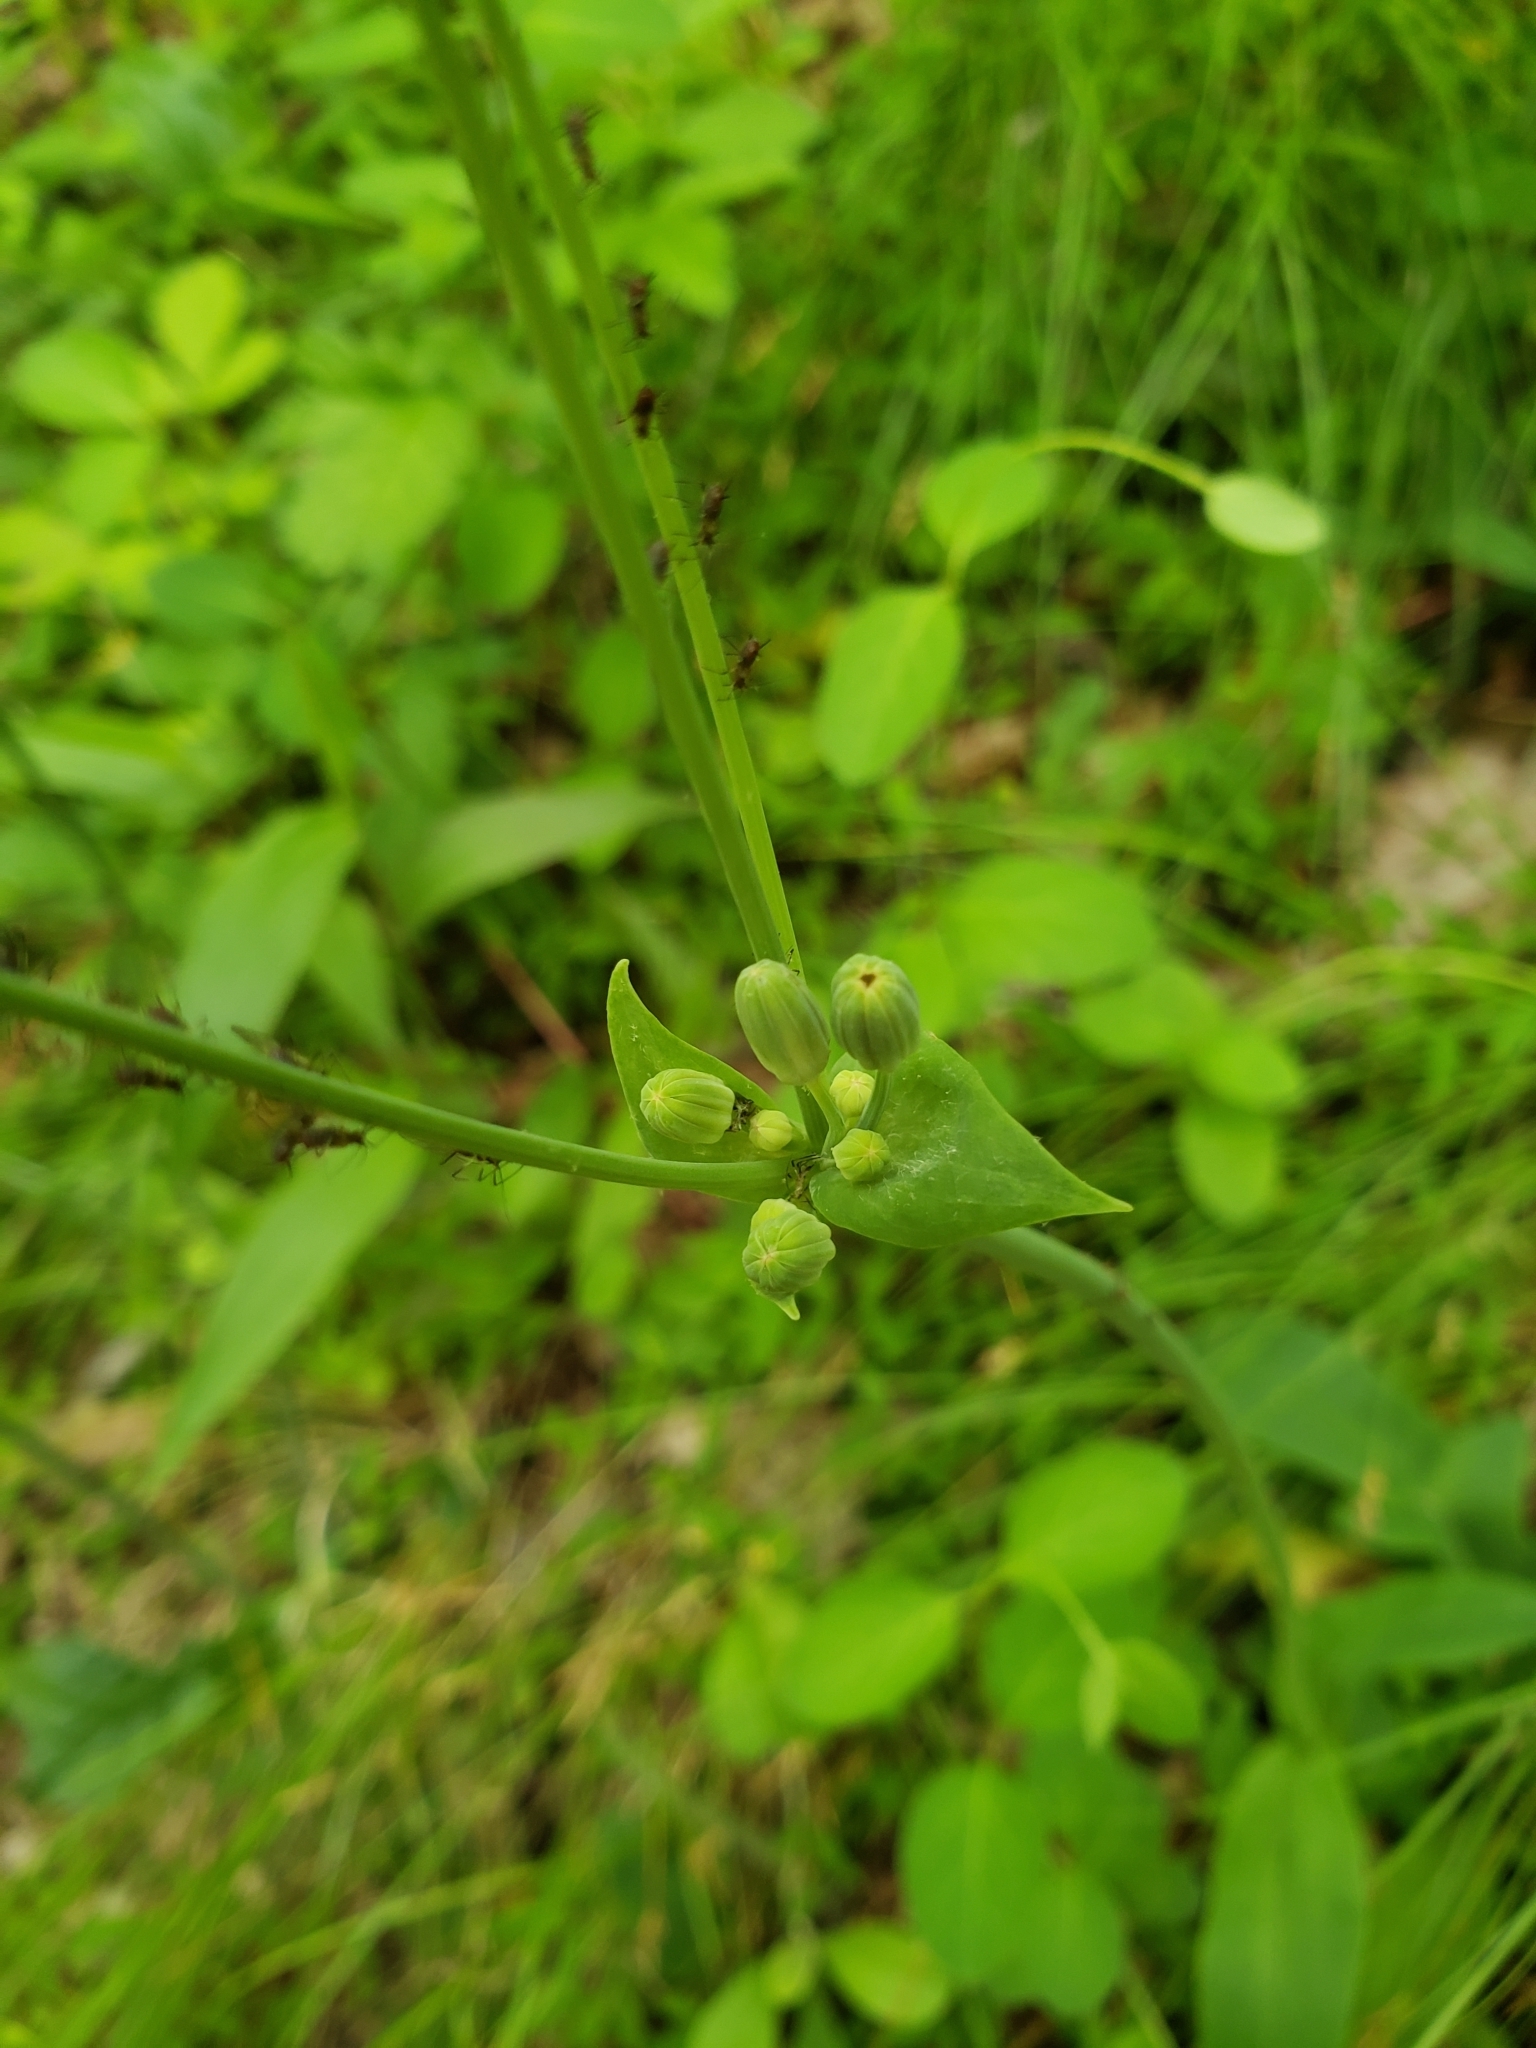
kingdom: Plantae
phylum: Tracheophyta
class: Magnoliopsida
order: Asterales
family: Asteraceae
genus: Krigia
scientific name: Krigia biflora
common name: Orange dwarf-dandelion
